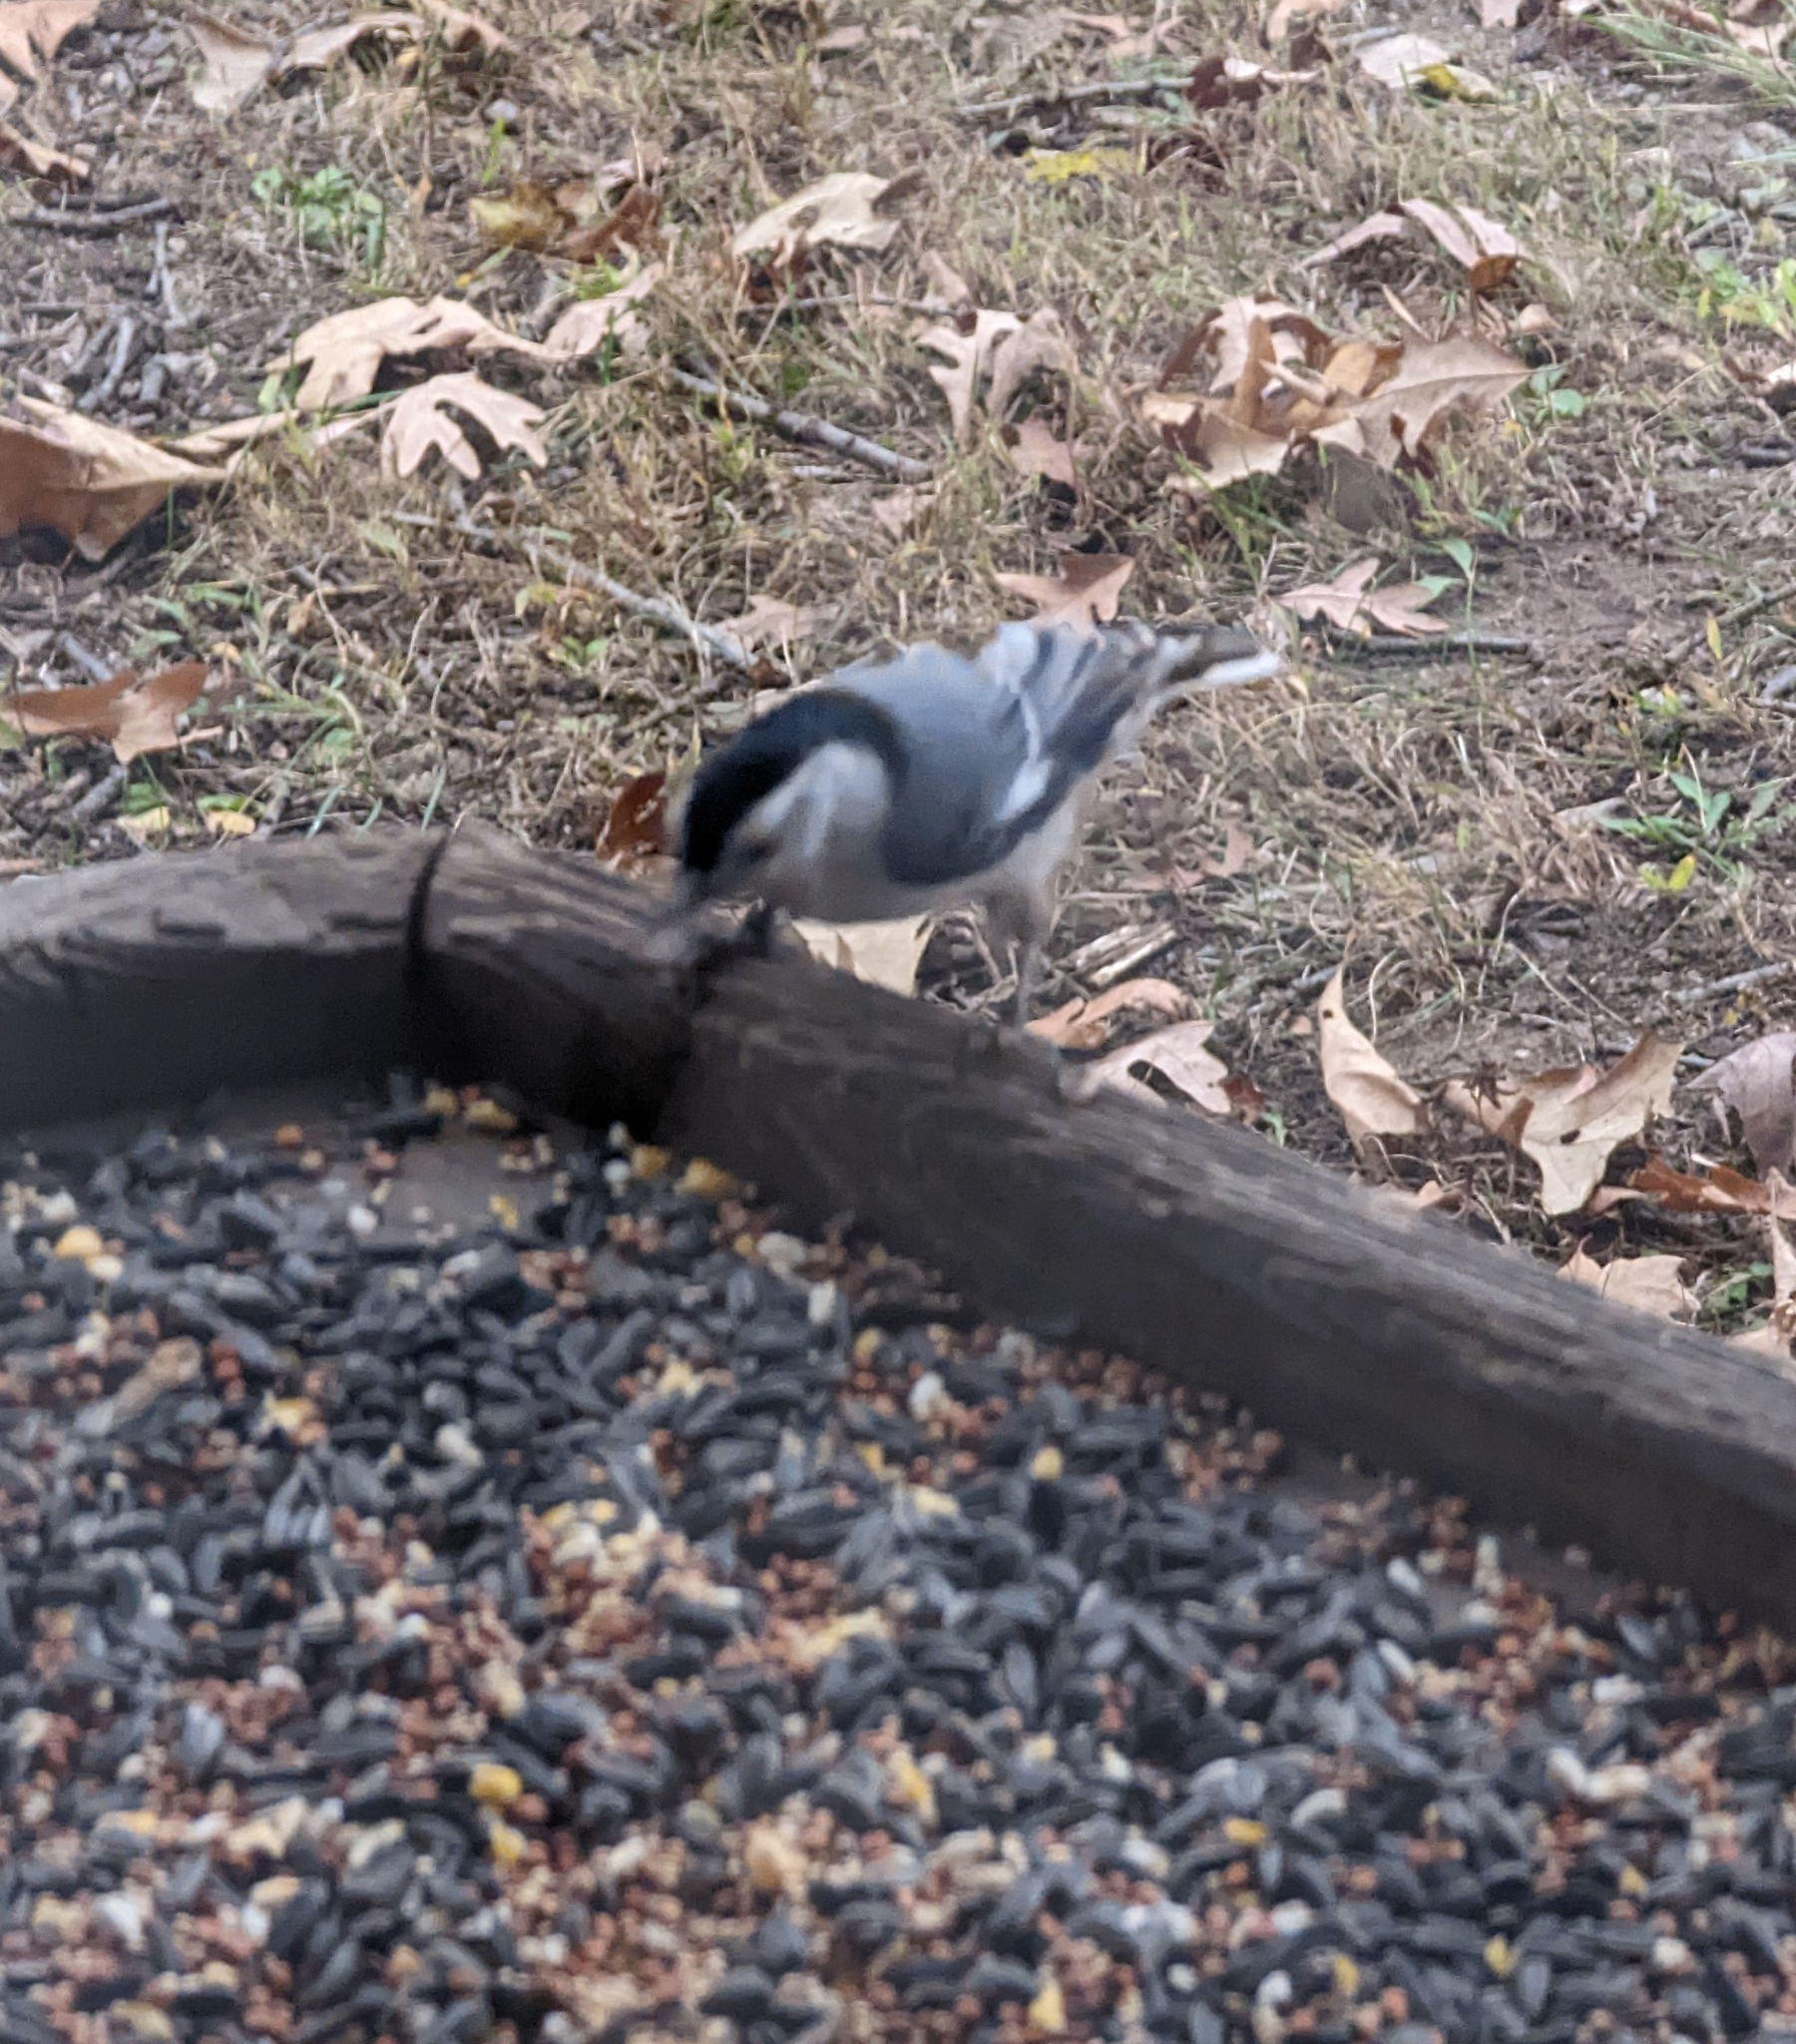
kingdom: Animalia
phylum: Chordata
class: Aves
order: Passeriformes
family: Sittidae
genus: Sitta
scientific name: Sitta carolinensis
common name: White-breasted nuthatch
